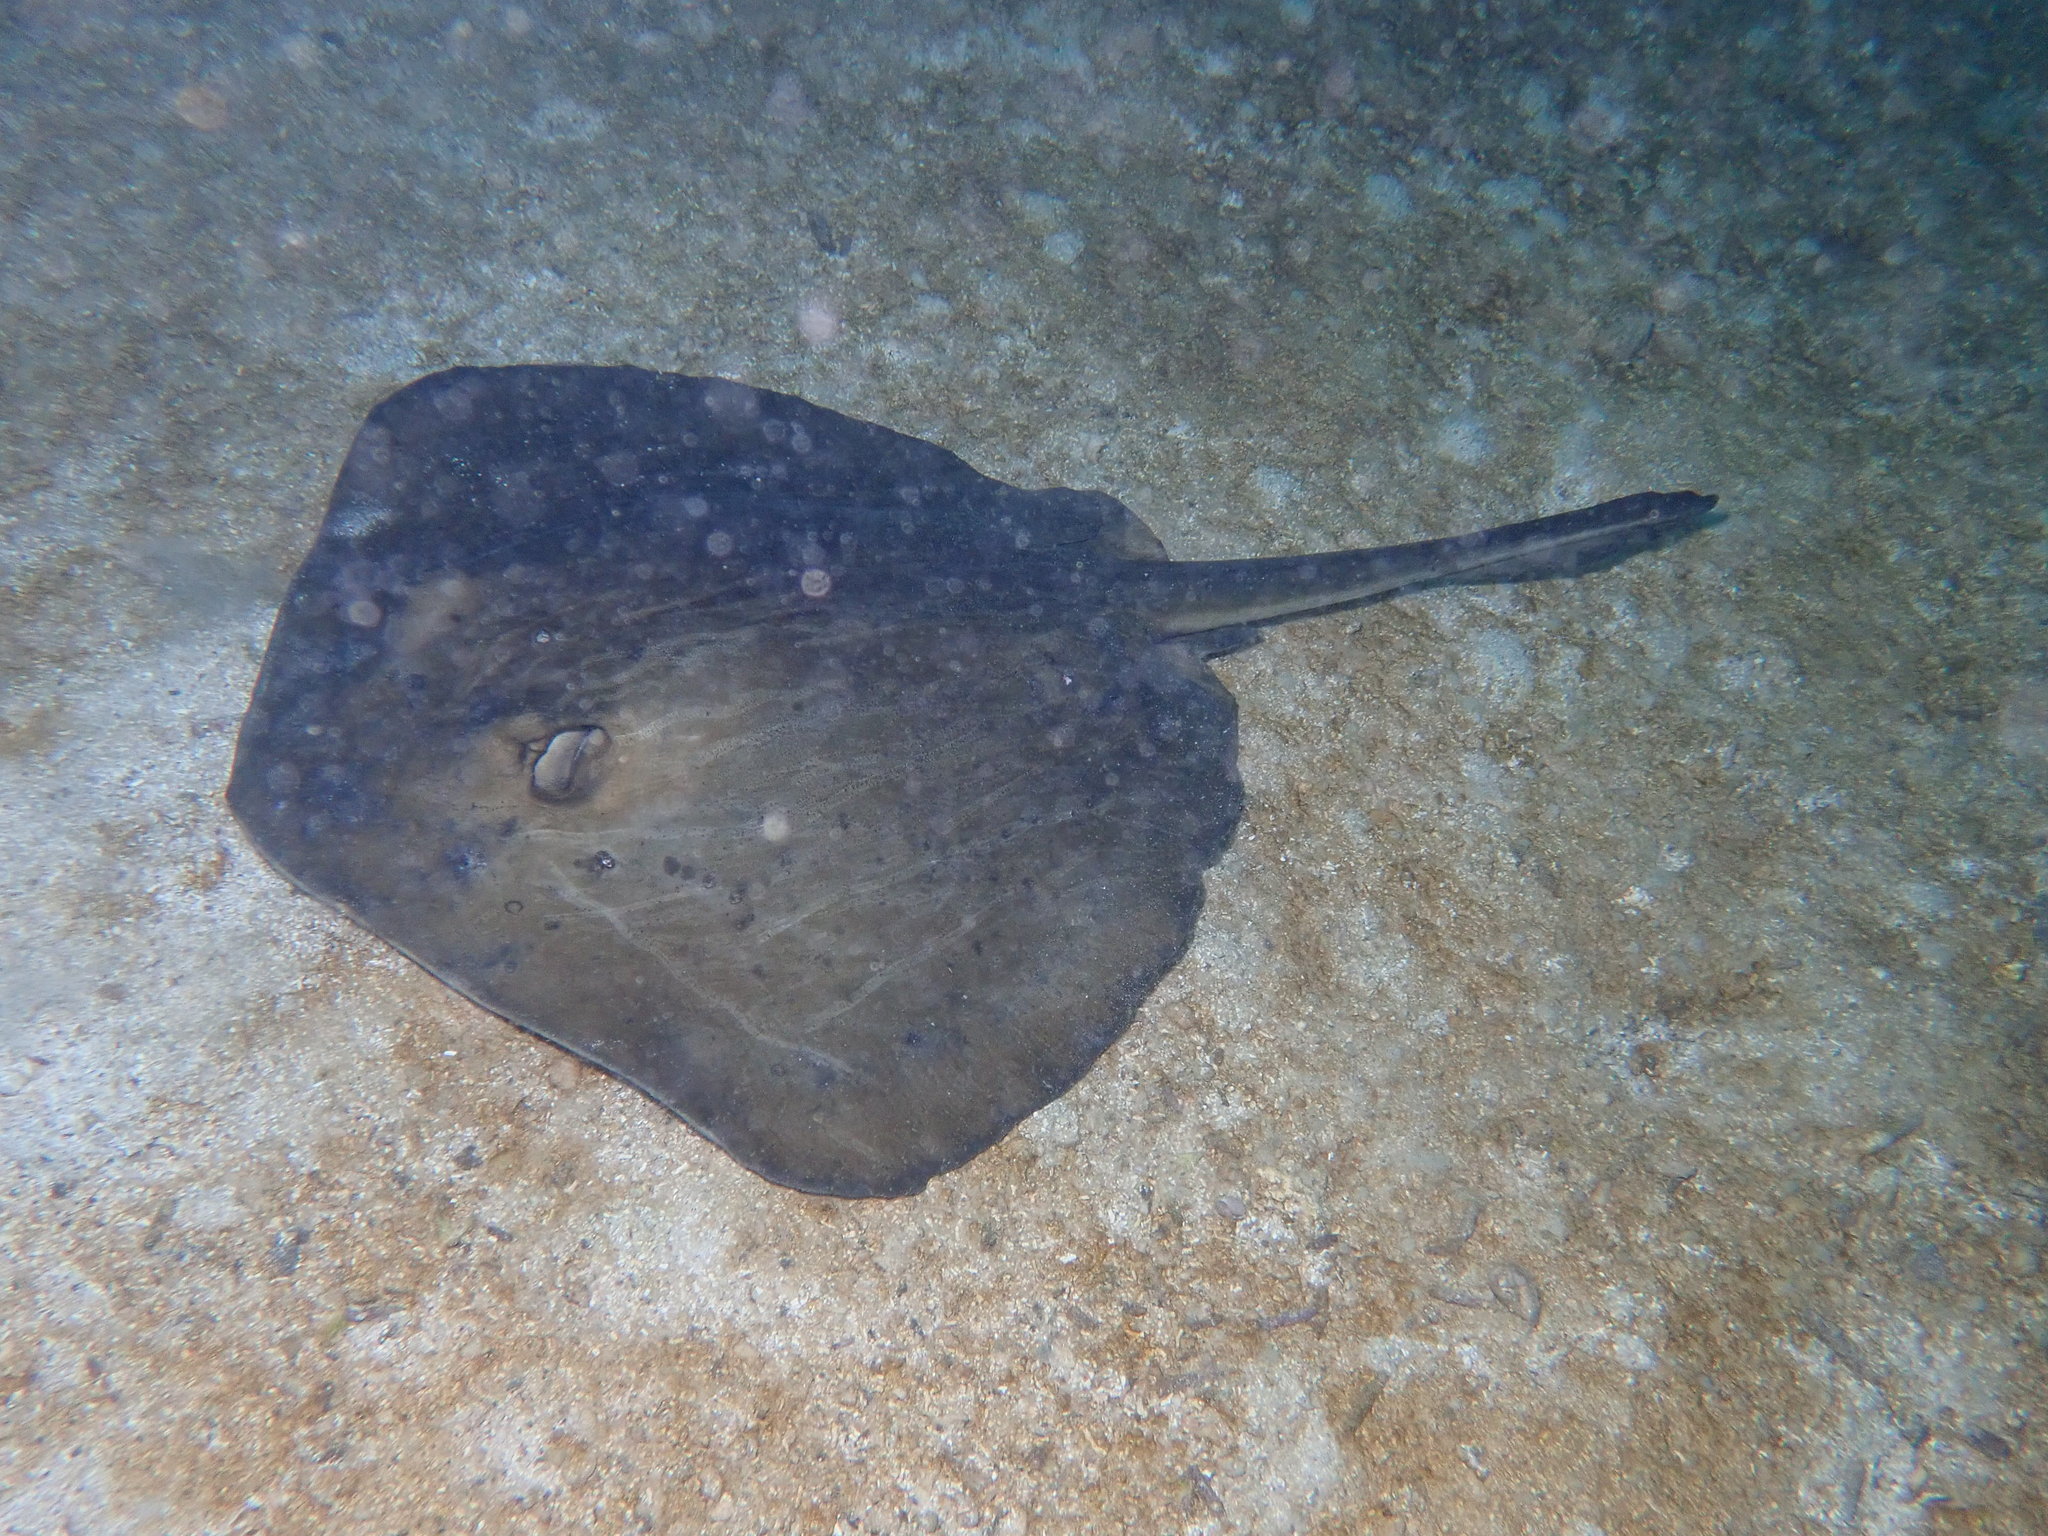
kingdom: Animalia
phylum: Chordata
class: Elasmobranchii
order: Myliobatiformes
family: Dasyatidae
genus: Hypanus
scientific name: Hypanus dipterurus
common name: Diamond stingray
